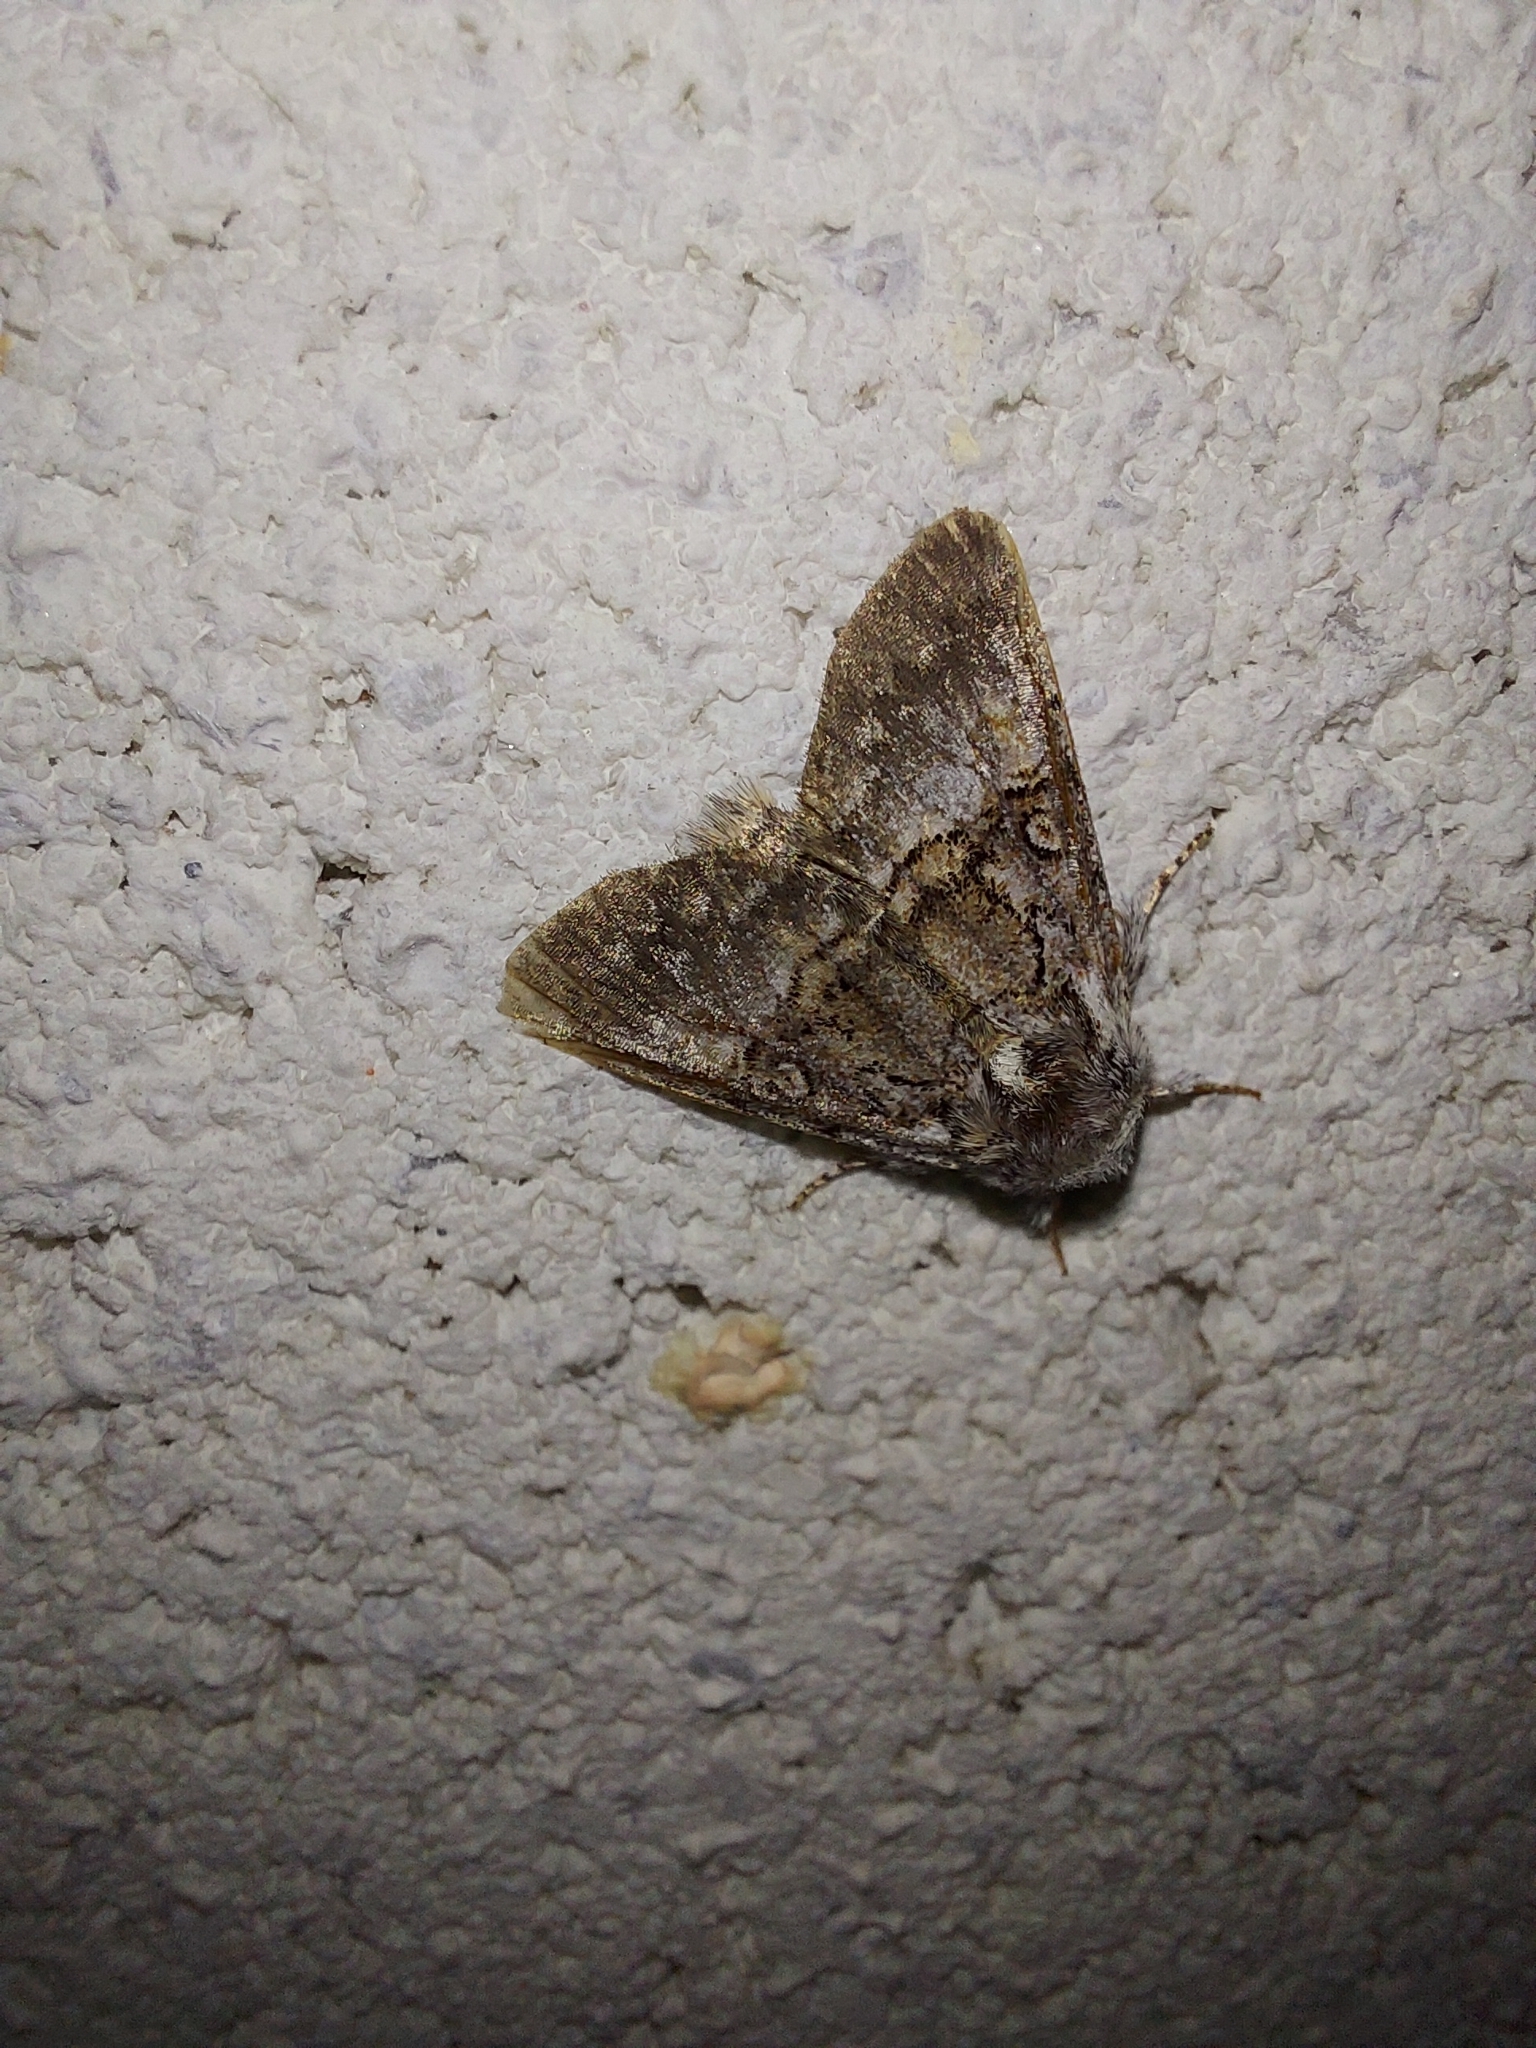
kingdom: Animalia
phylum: Arthropoda
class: Insecta
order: Lepidoptera
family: Noctuidae
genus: Colocasia
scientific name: Colocasia coryli
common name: Nut-tree tussock
